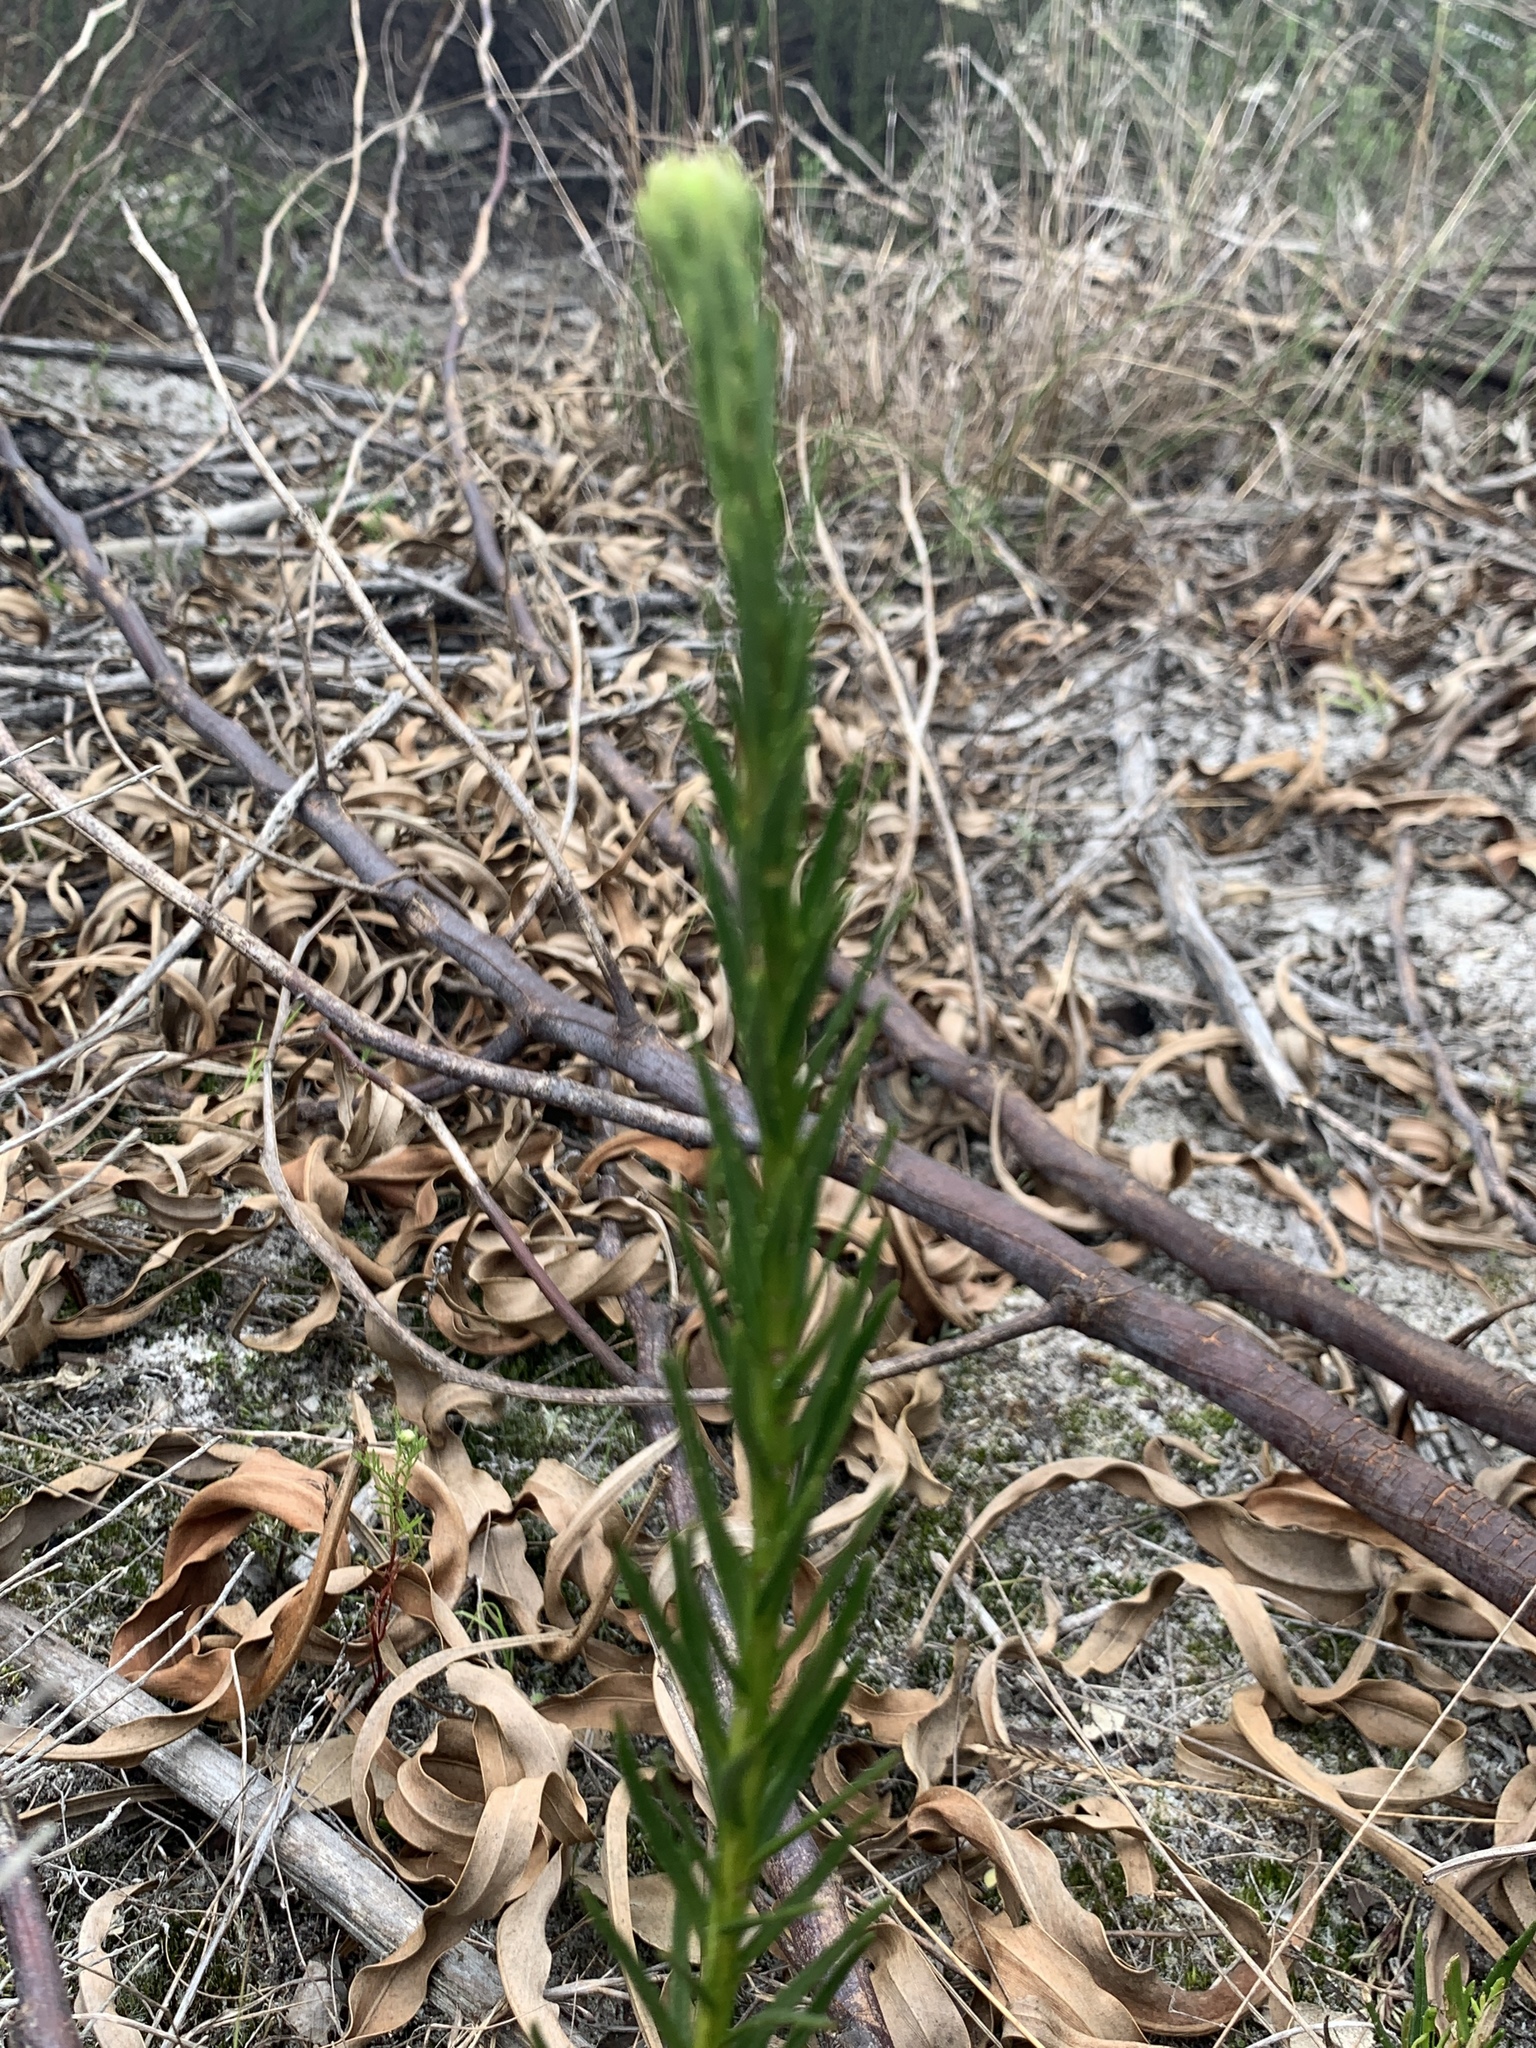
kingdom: Plantae
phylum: Tracheophyta
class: Magnoliopsida
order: Lamiales
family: Scrophulariaceae
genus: Pseudoselago
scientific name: Pseudoselago spuria
